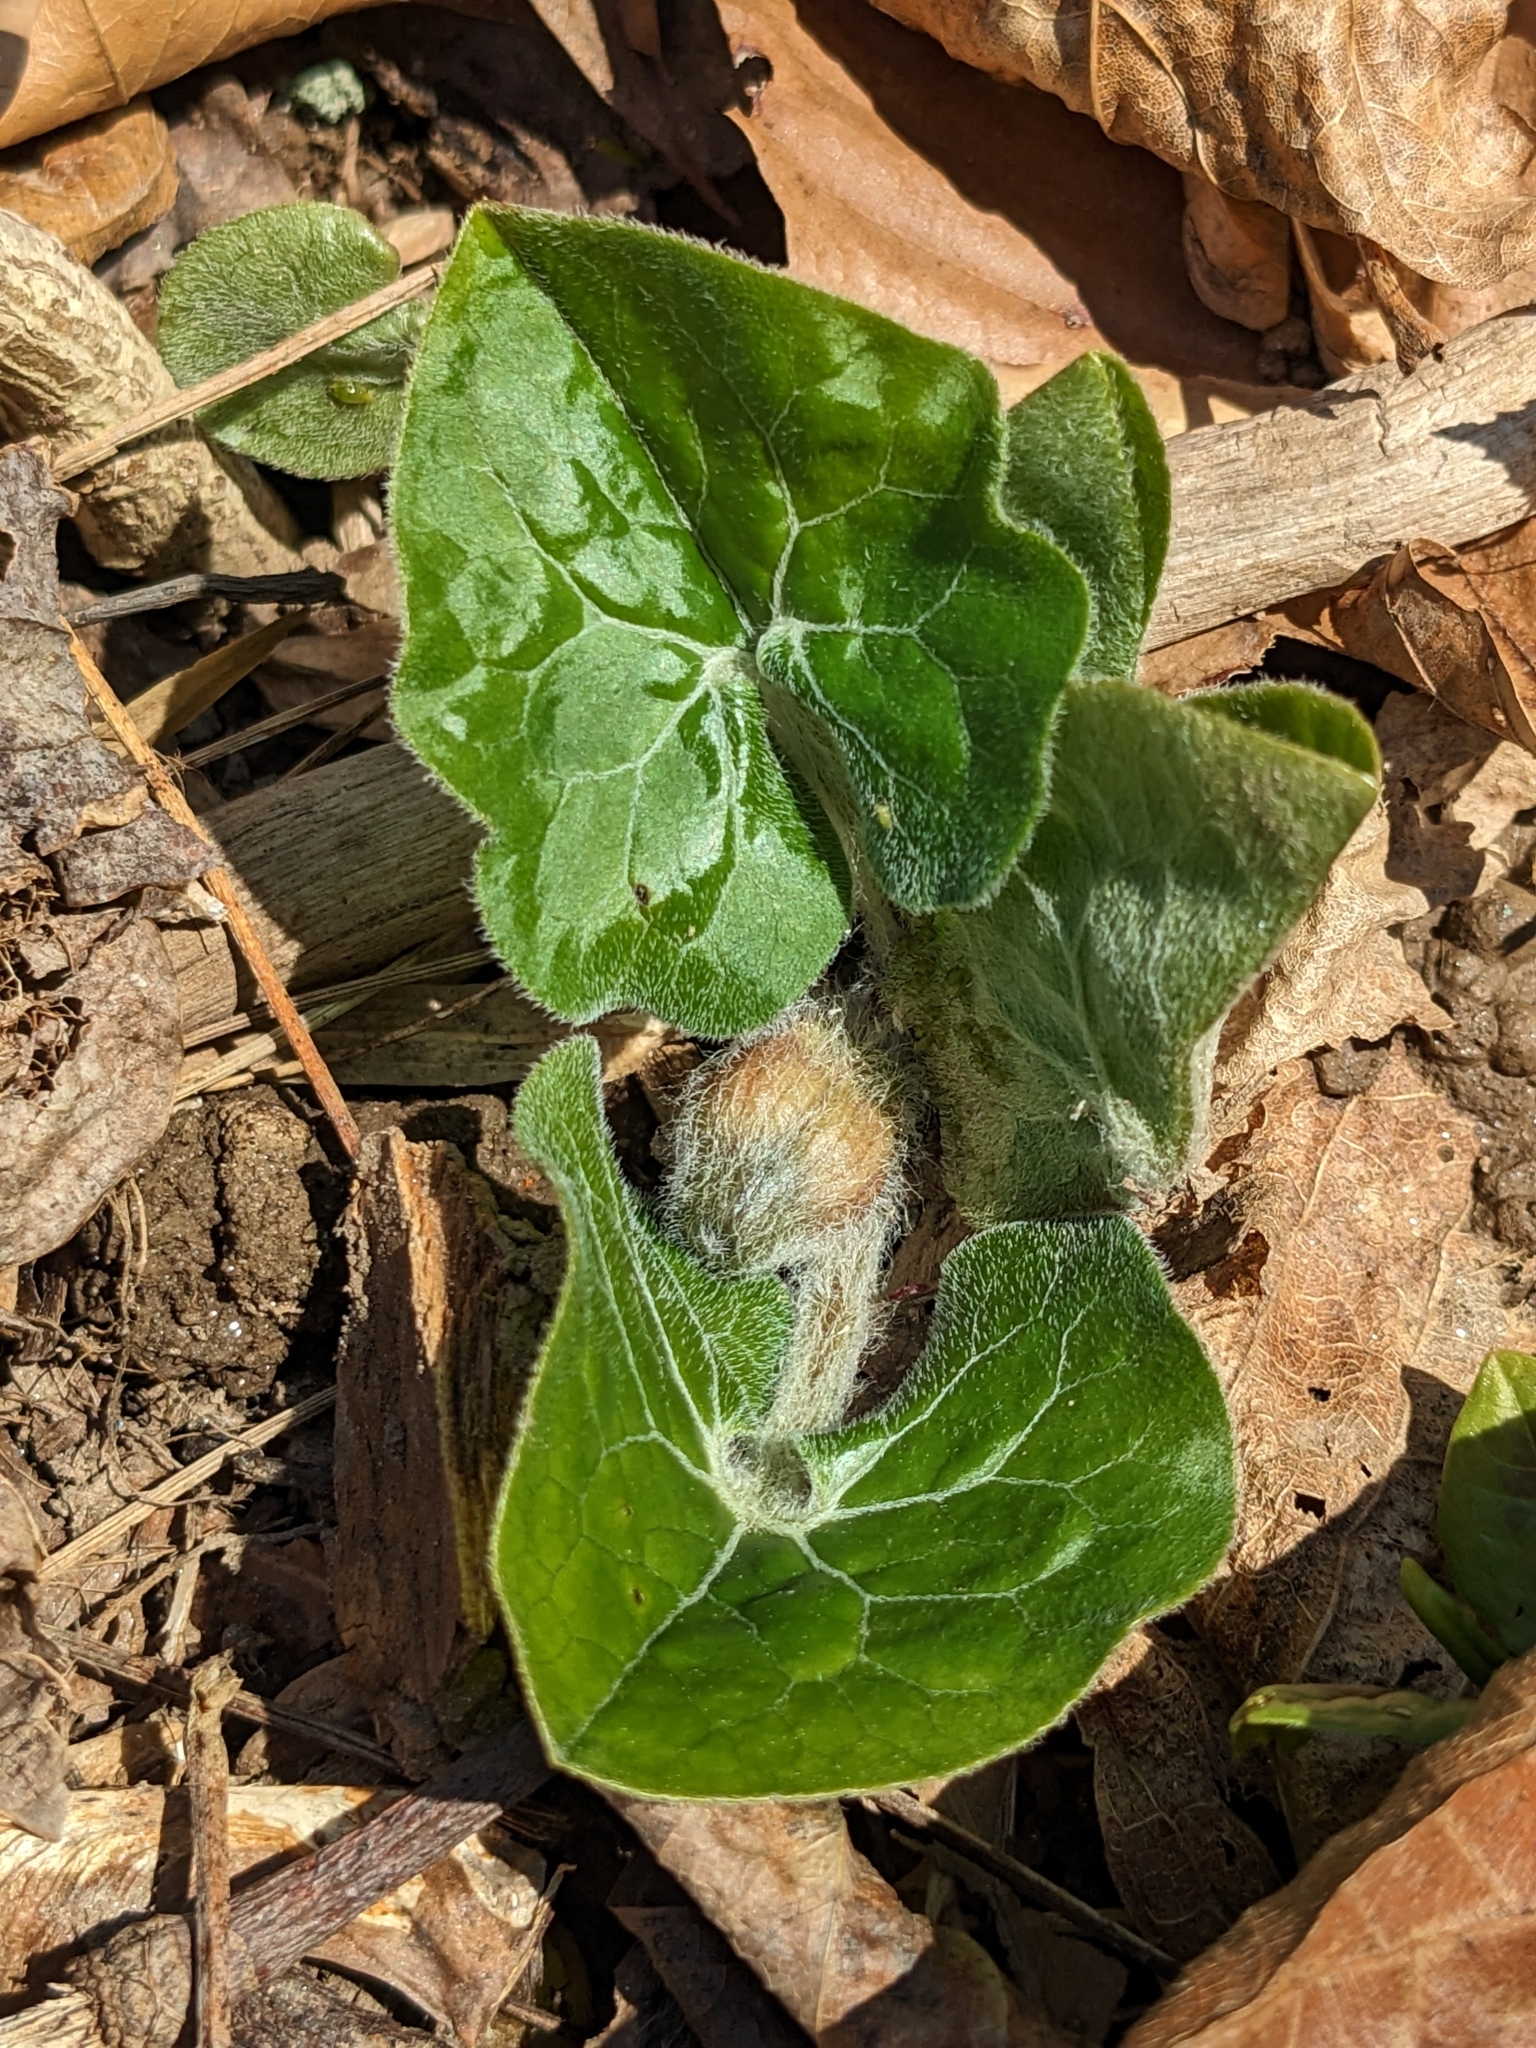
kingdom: Plantae
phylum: Tracheophyta
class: Magnoliopsida
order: Piperales
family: Aristolochiaceae
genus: Asarum
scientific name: Asarum canadense
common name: Wild ginger
